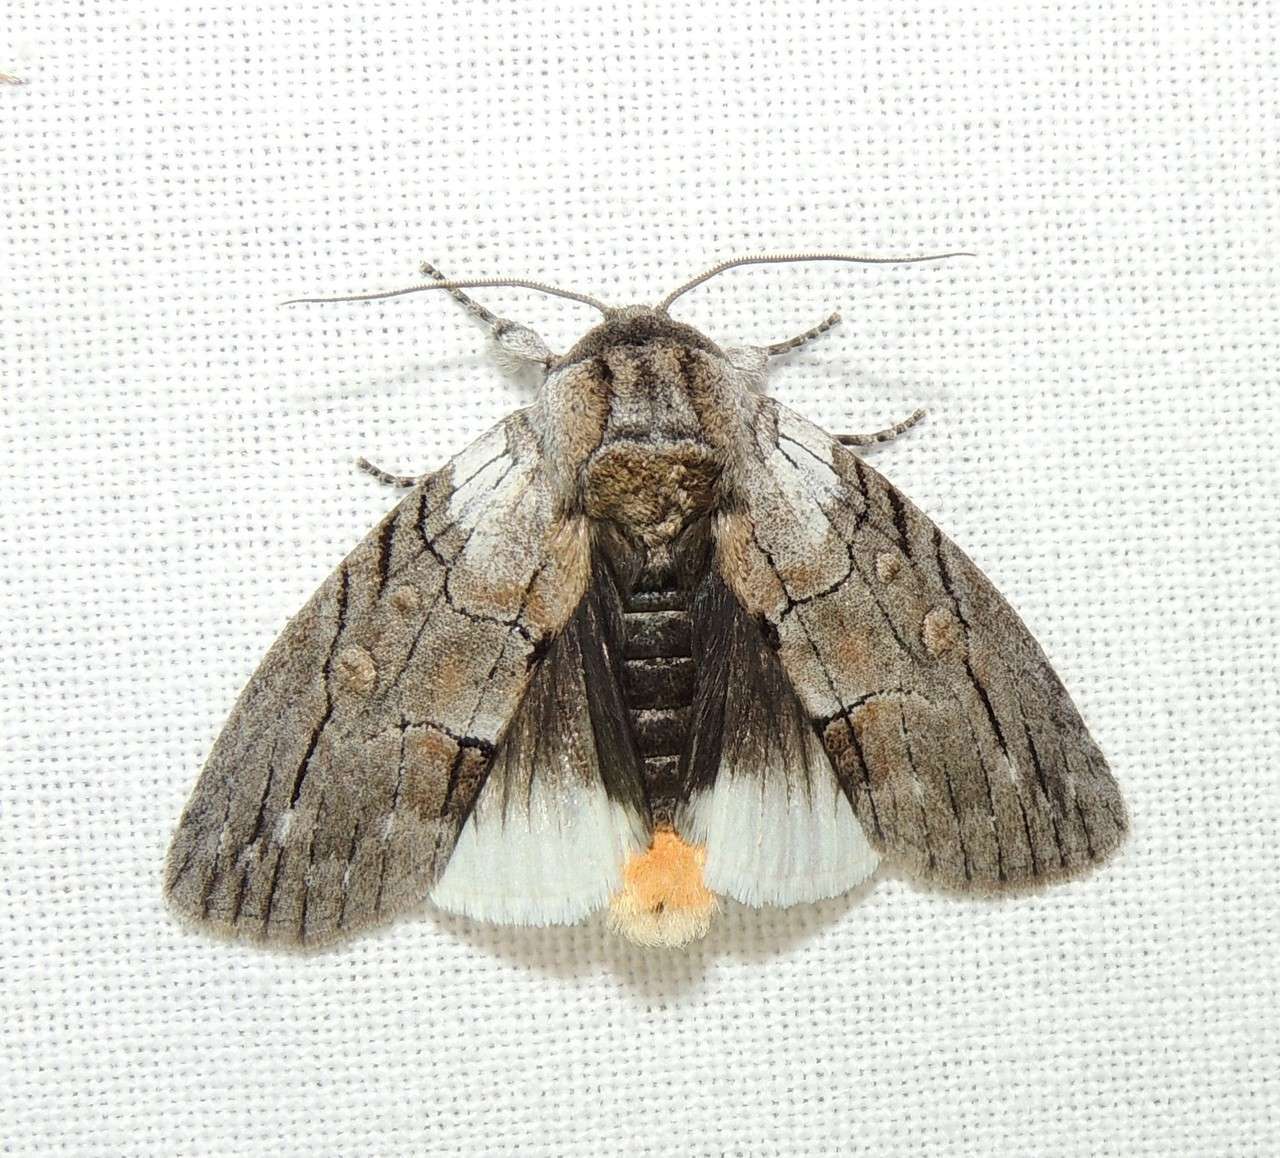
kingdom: Animalia
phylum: Arthropoda
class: Insecta
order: Lepidoptera
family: Oenosandridae
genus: Discophlebia
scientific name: Discophlebia catocalina
